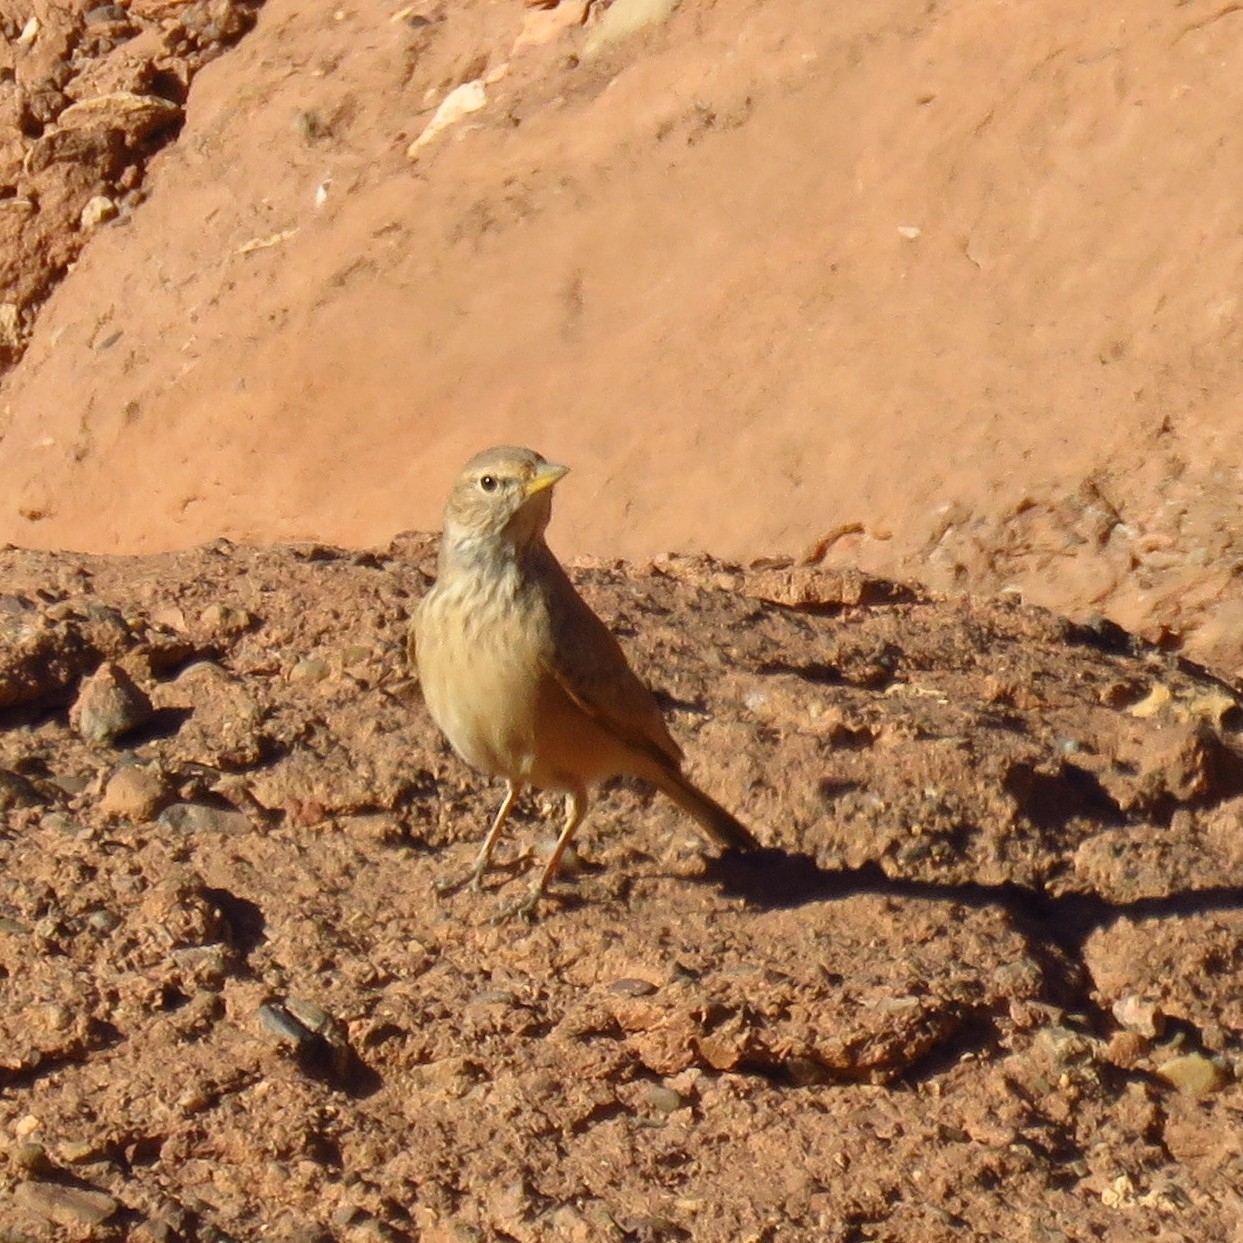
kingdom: Animalia
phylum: Chordata
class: Aves
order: Passeriformes
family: Alaudidae
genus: Ammomanes
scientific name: Ammomanes deserti
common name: Desert lark
